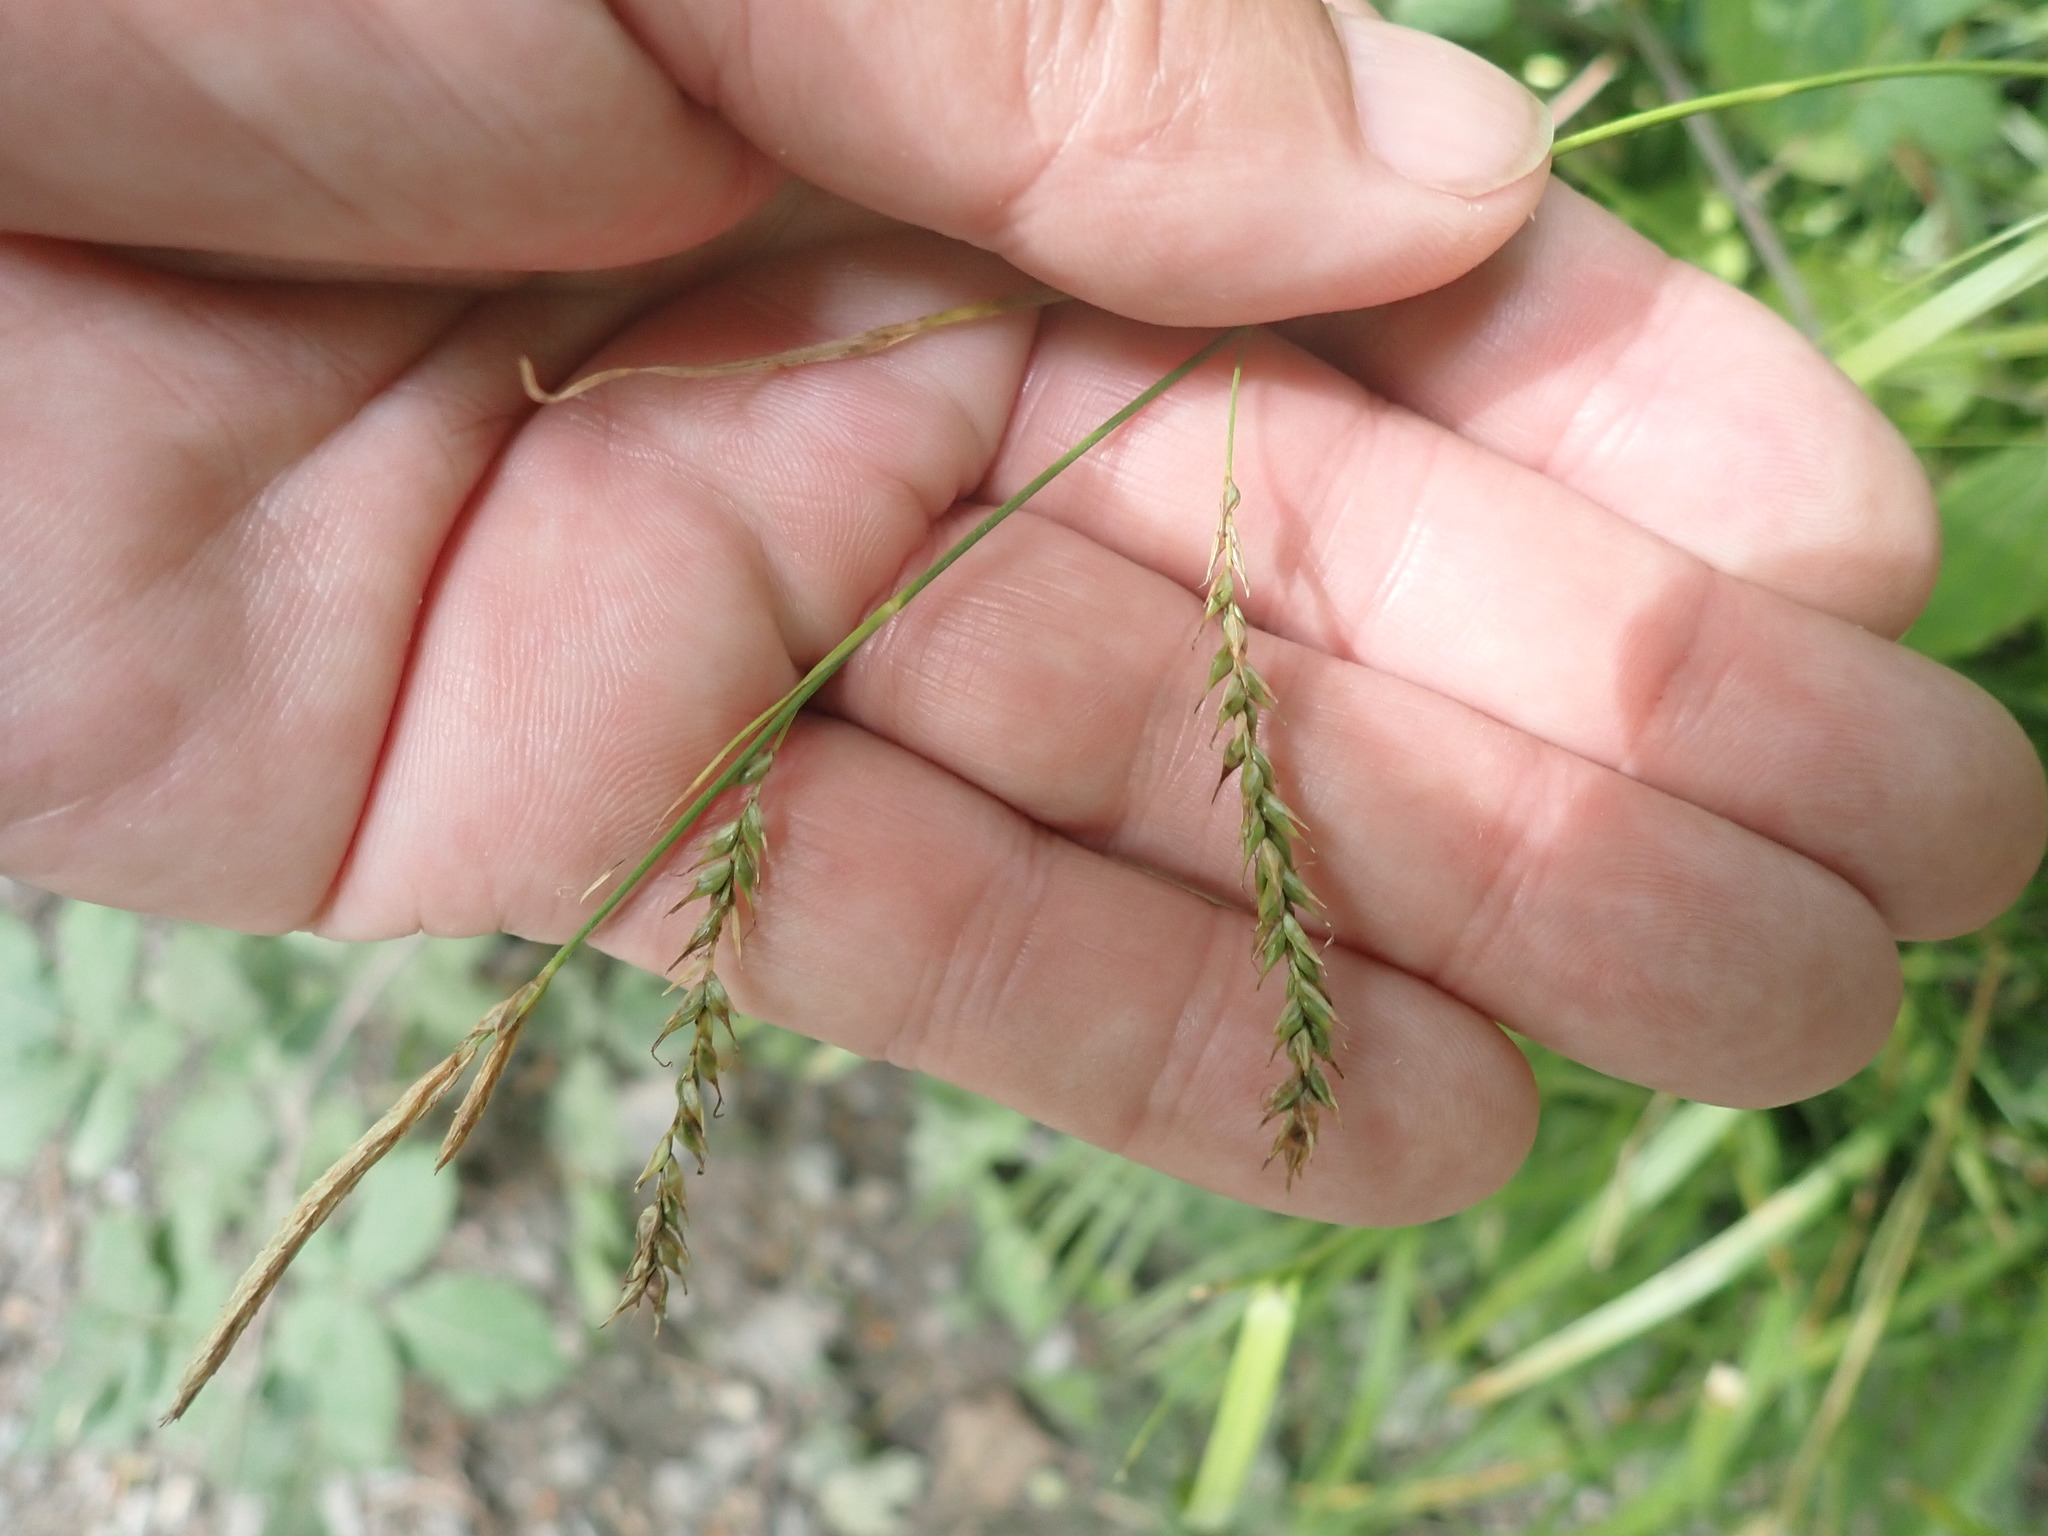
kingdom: Plantae
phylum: Tracheophyta
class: Liliopsida
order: Poales
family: Cyperaceae
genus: Carex
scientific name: Carex sylvatica
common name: Wood-sedge
